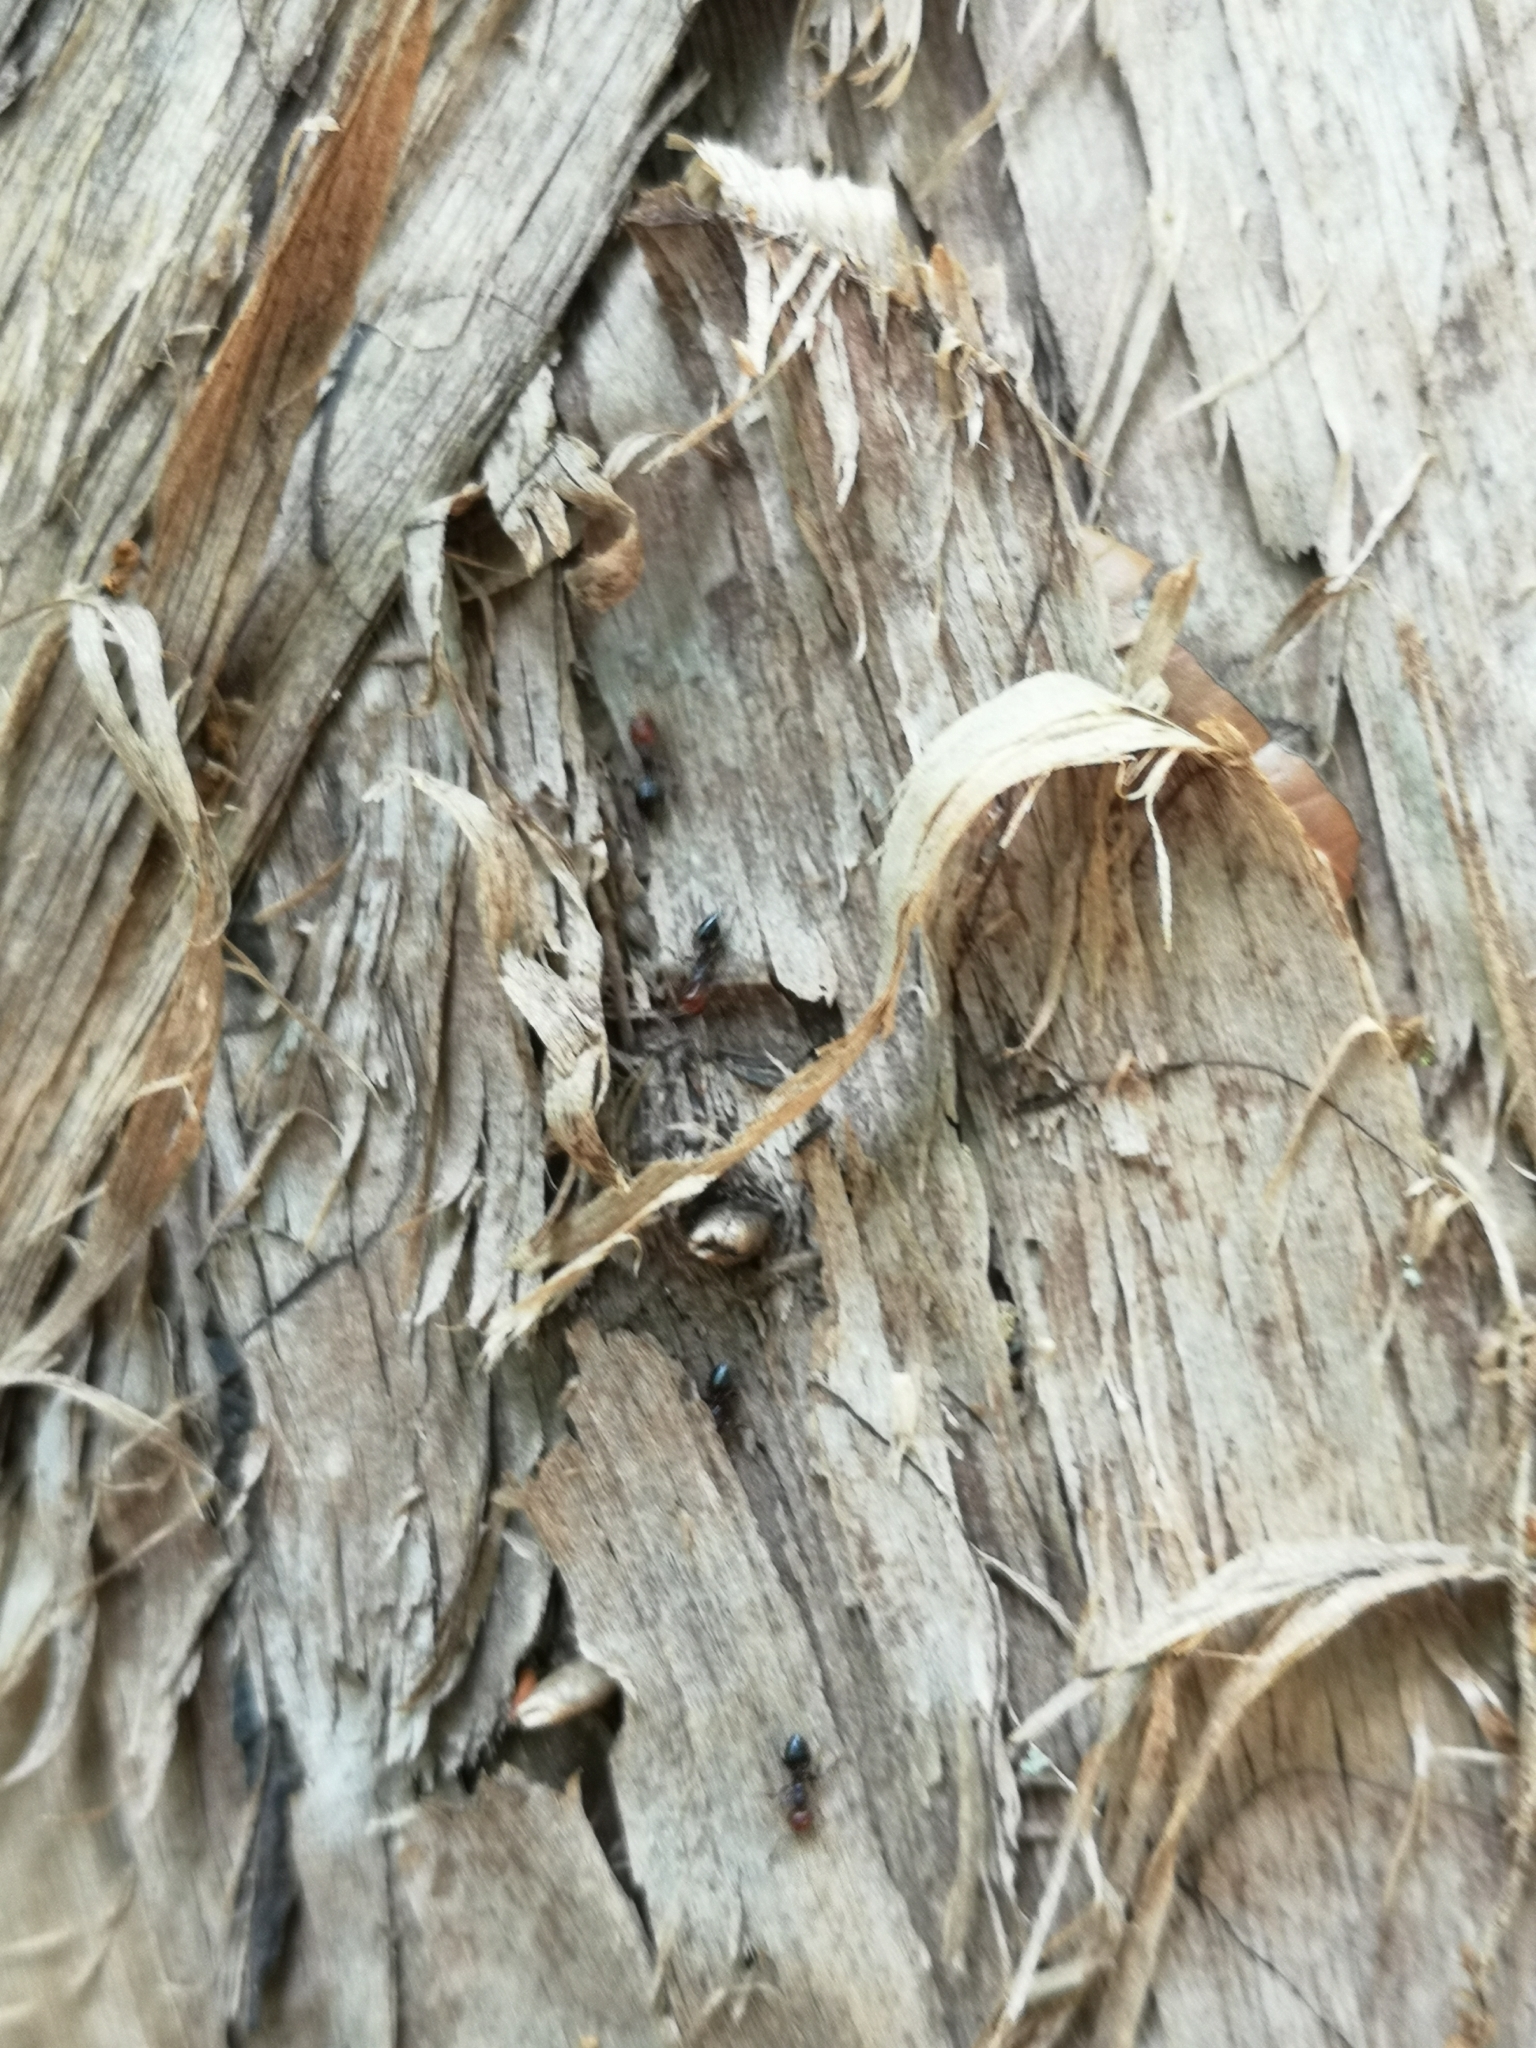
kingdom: Animalia
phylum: Arthropoda
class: Insecta
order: Hymenoptera
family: Formicidae
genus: Crematogaster
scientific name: Crematogaster scutellaris
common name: Fourmi du liège
